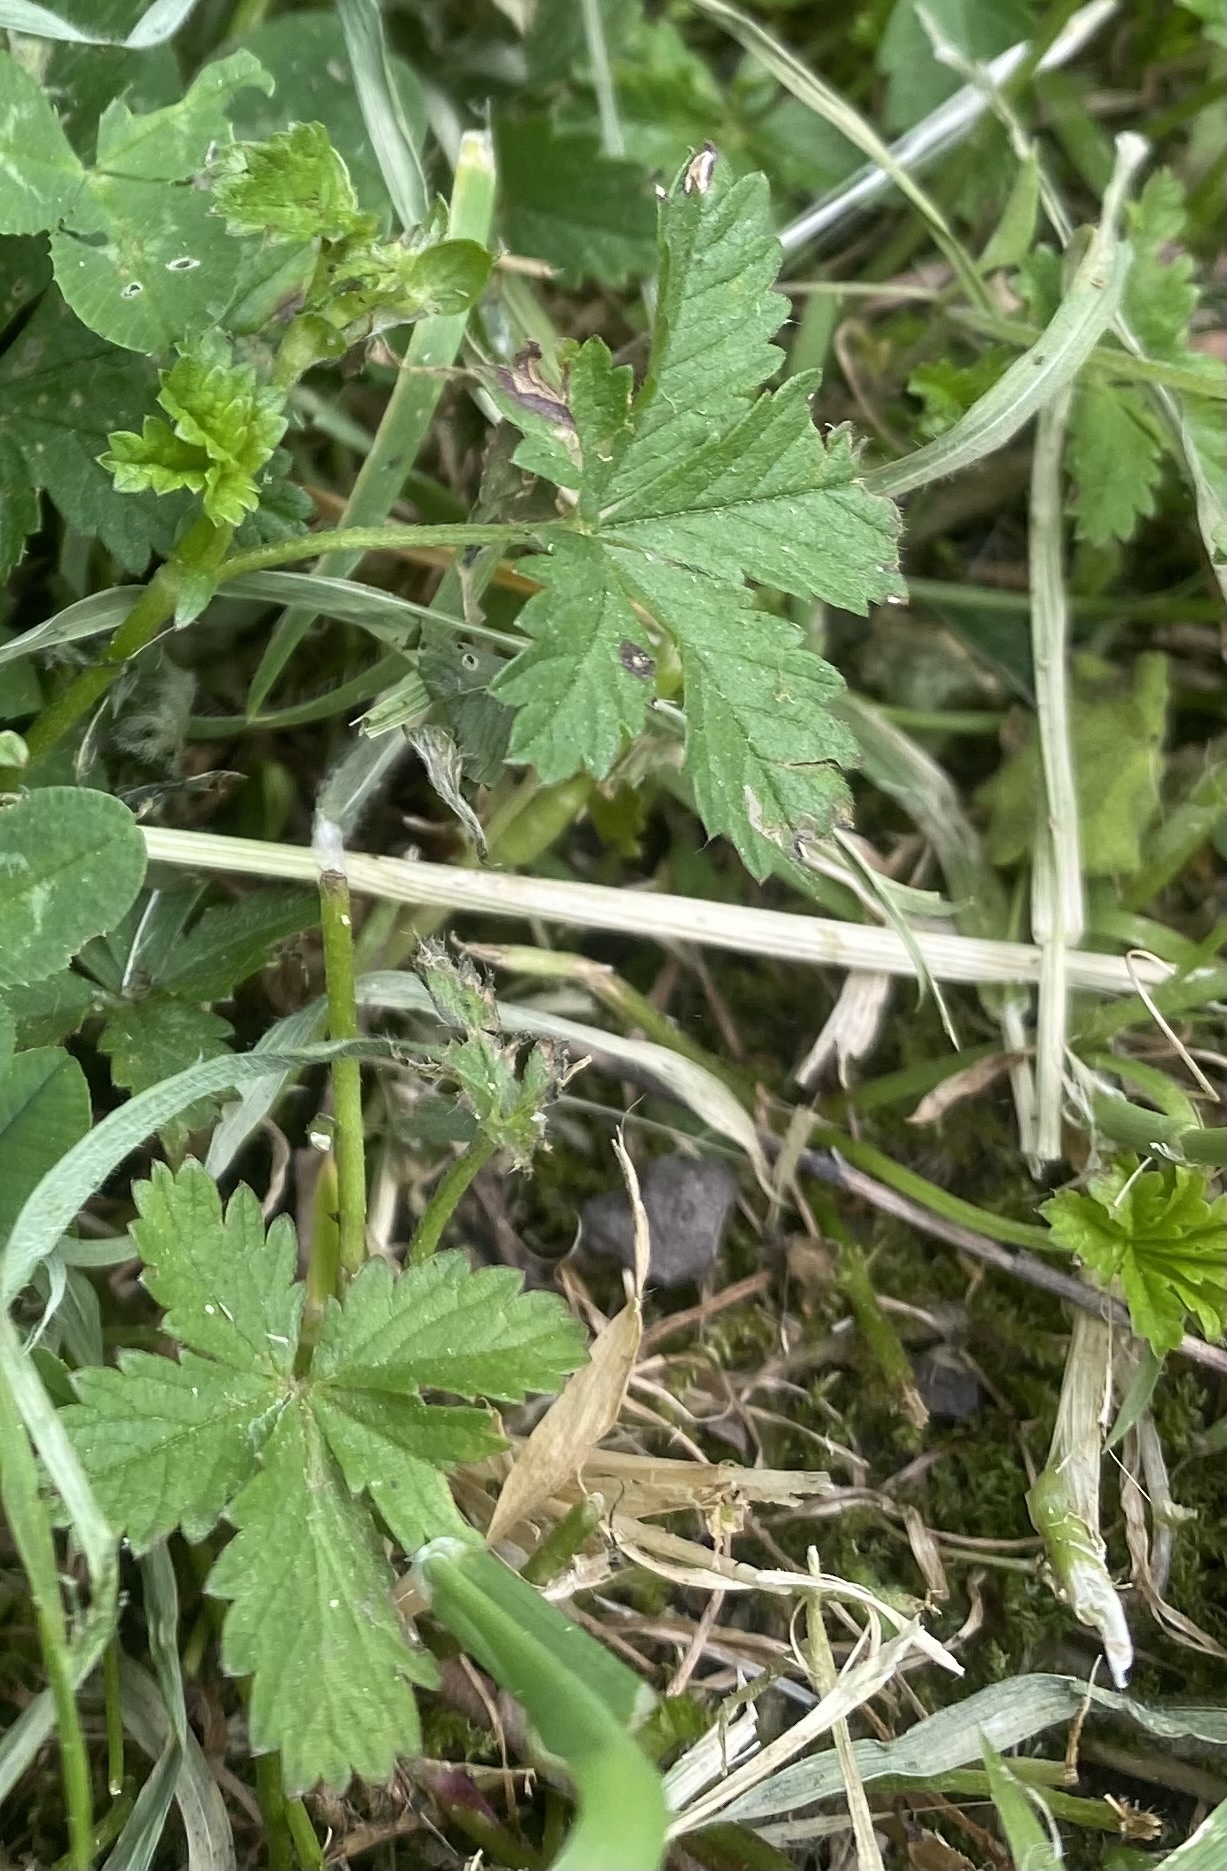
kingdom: Plantae
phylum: Tracheophyta
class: Magnoliopsida
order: Rosales
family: Rosaceae
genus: Potentilla
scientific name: Potentilla reptans
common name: Creeping cinquefoil
